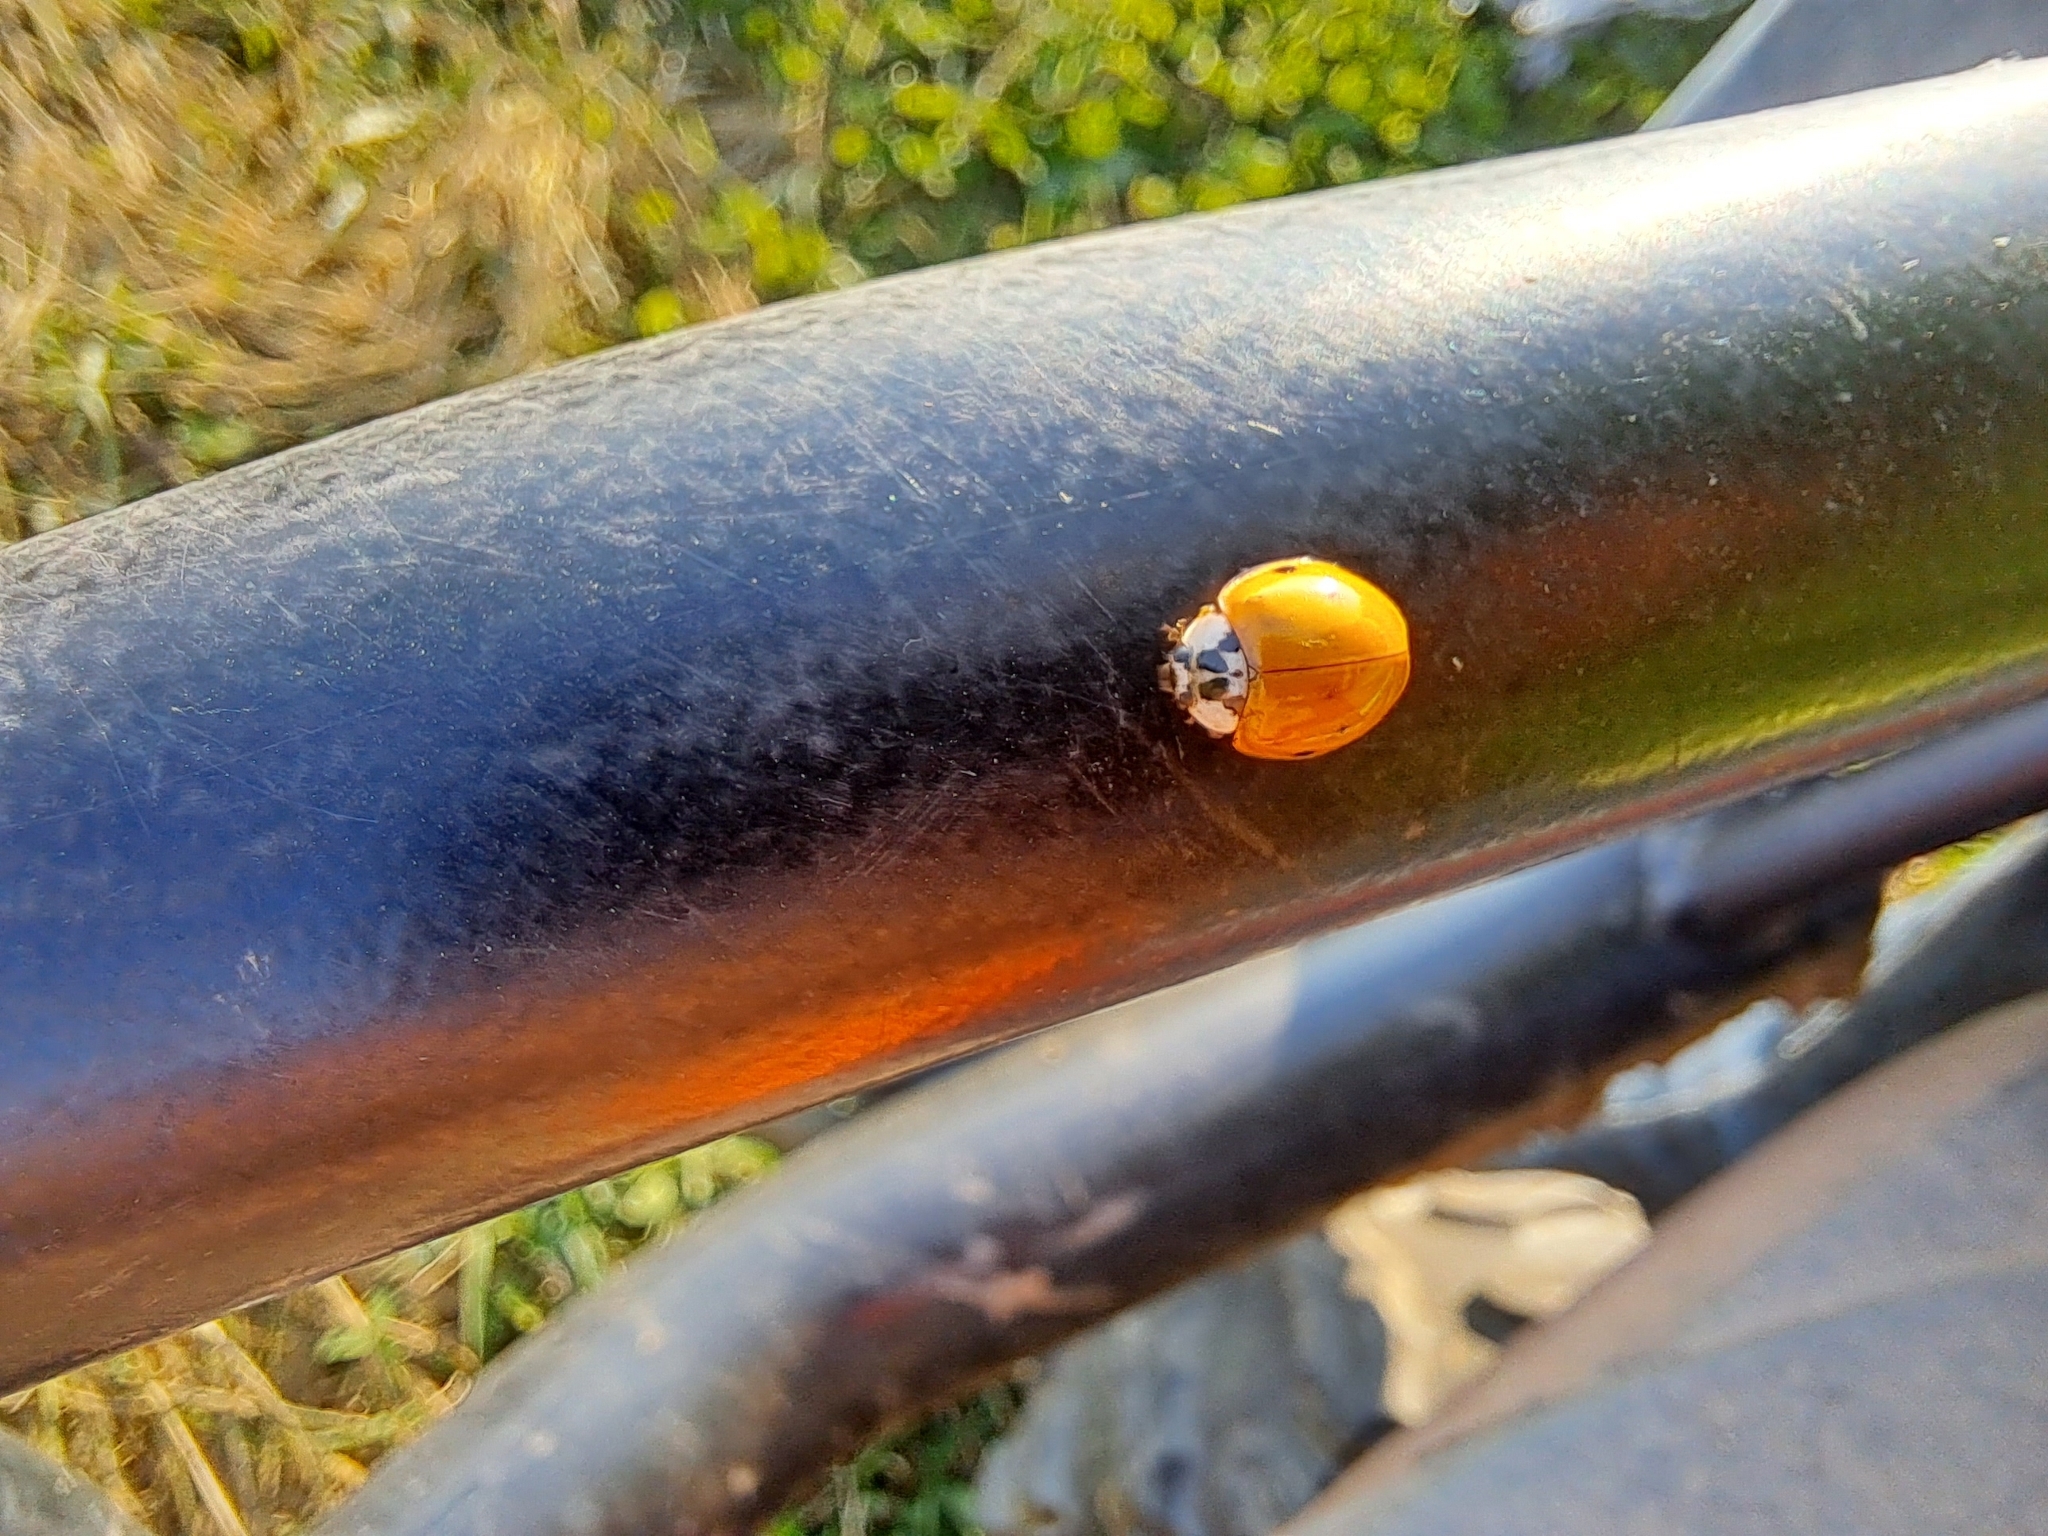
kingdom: Animalia
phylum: Arthropoda
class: Insecta
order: Coleoptera
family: Coccinellidae
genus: Harmonia
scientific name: Harmonia axyridis
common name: Harlequin ladybird
